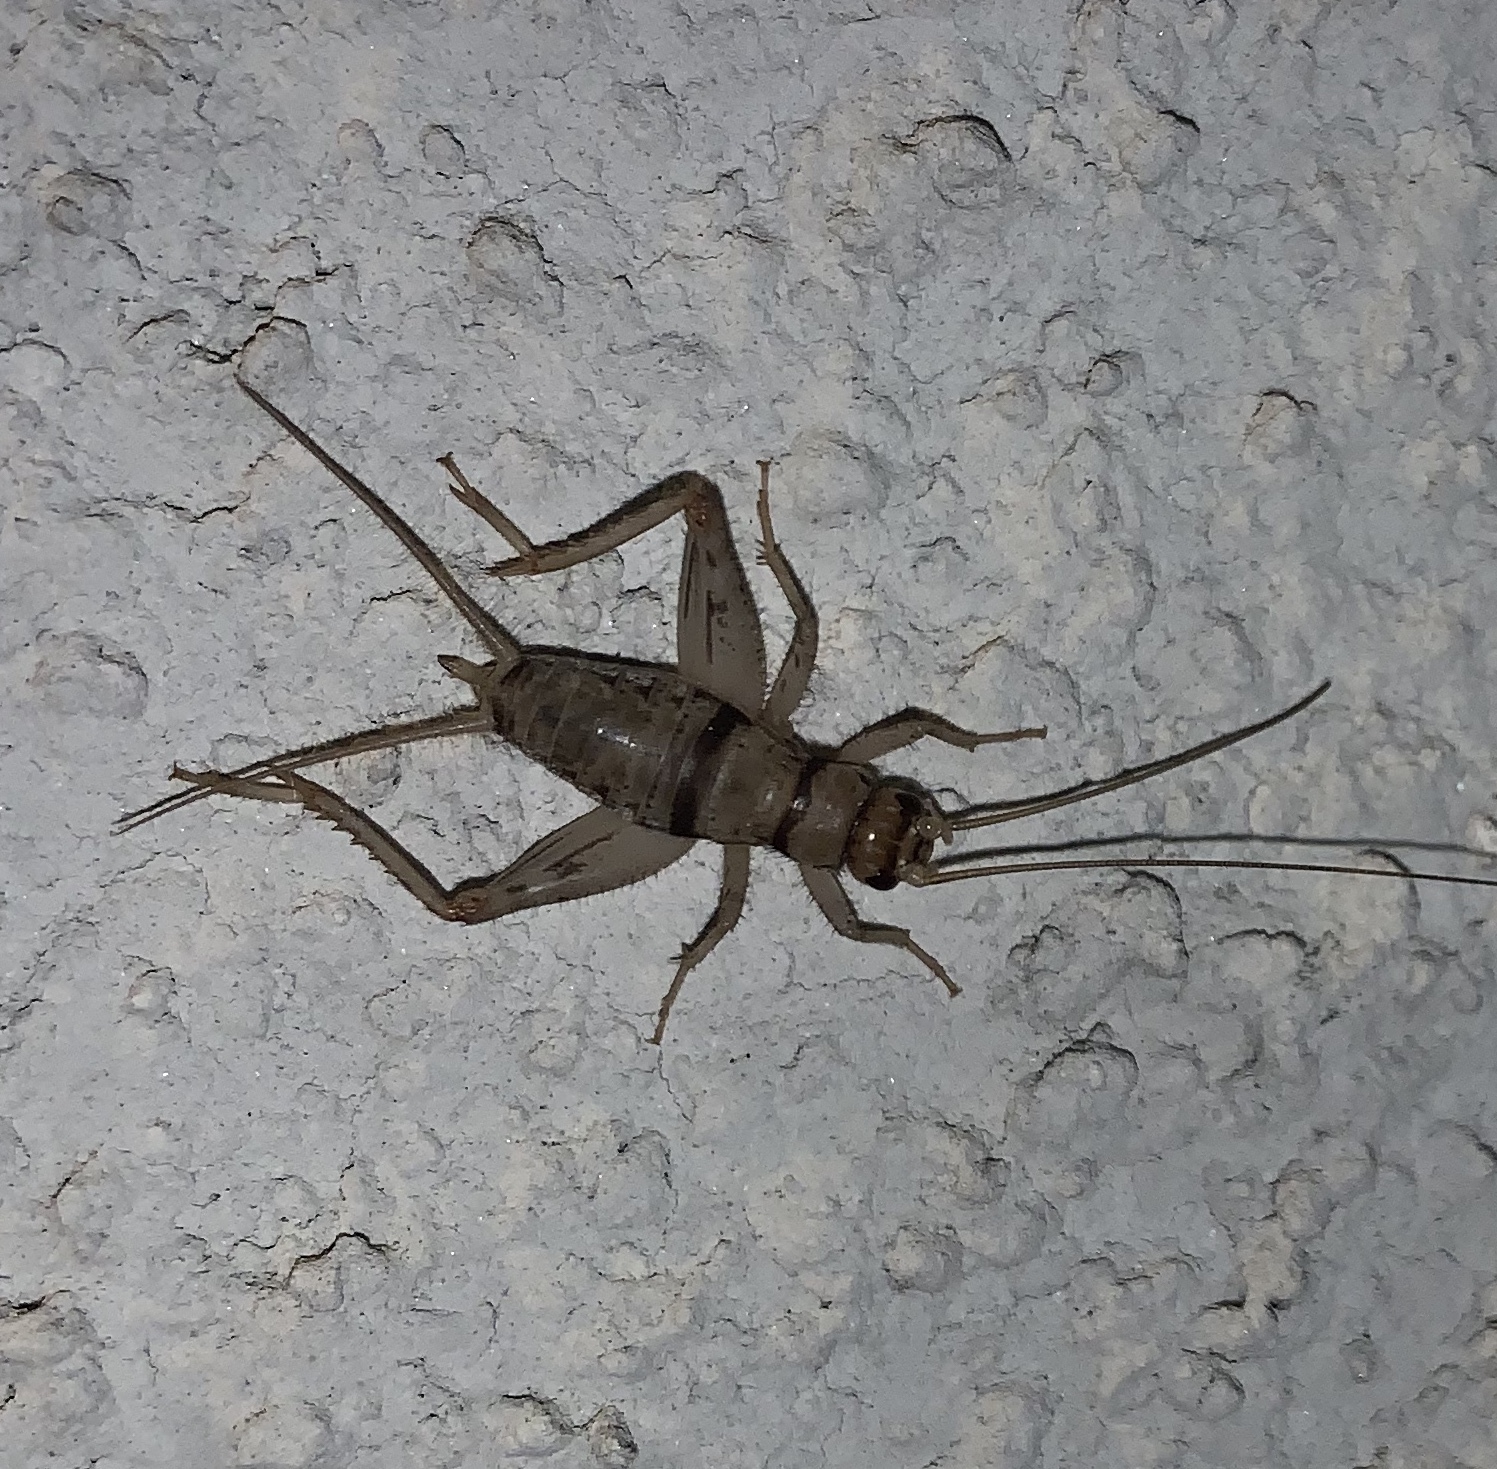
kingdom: Animalia
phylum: Arthropoda
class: Insecta
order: Orthoptera
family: Gryllidae
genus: Gryllodes
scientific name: Gryllodes sigillatus
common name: Tropical house cricket
